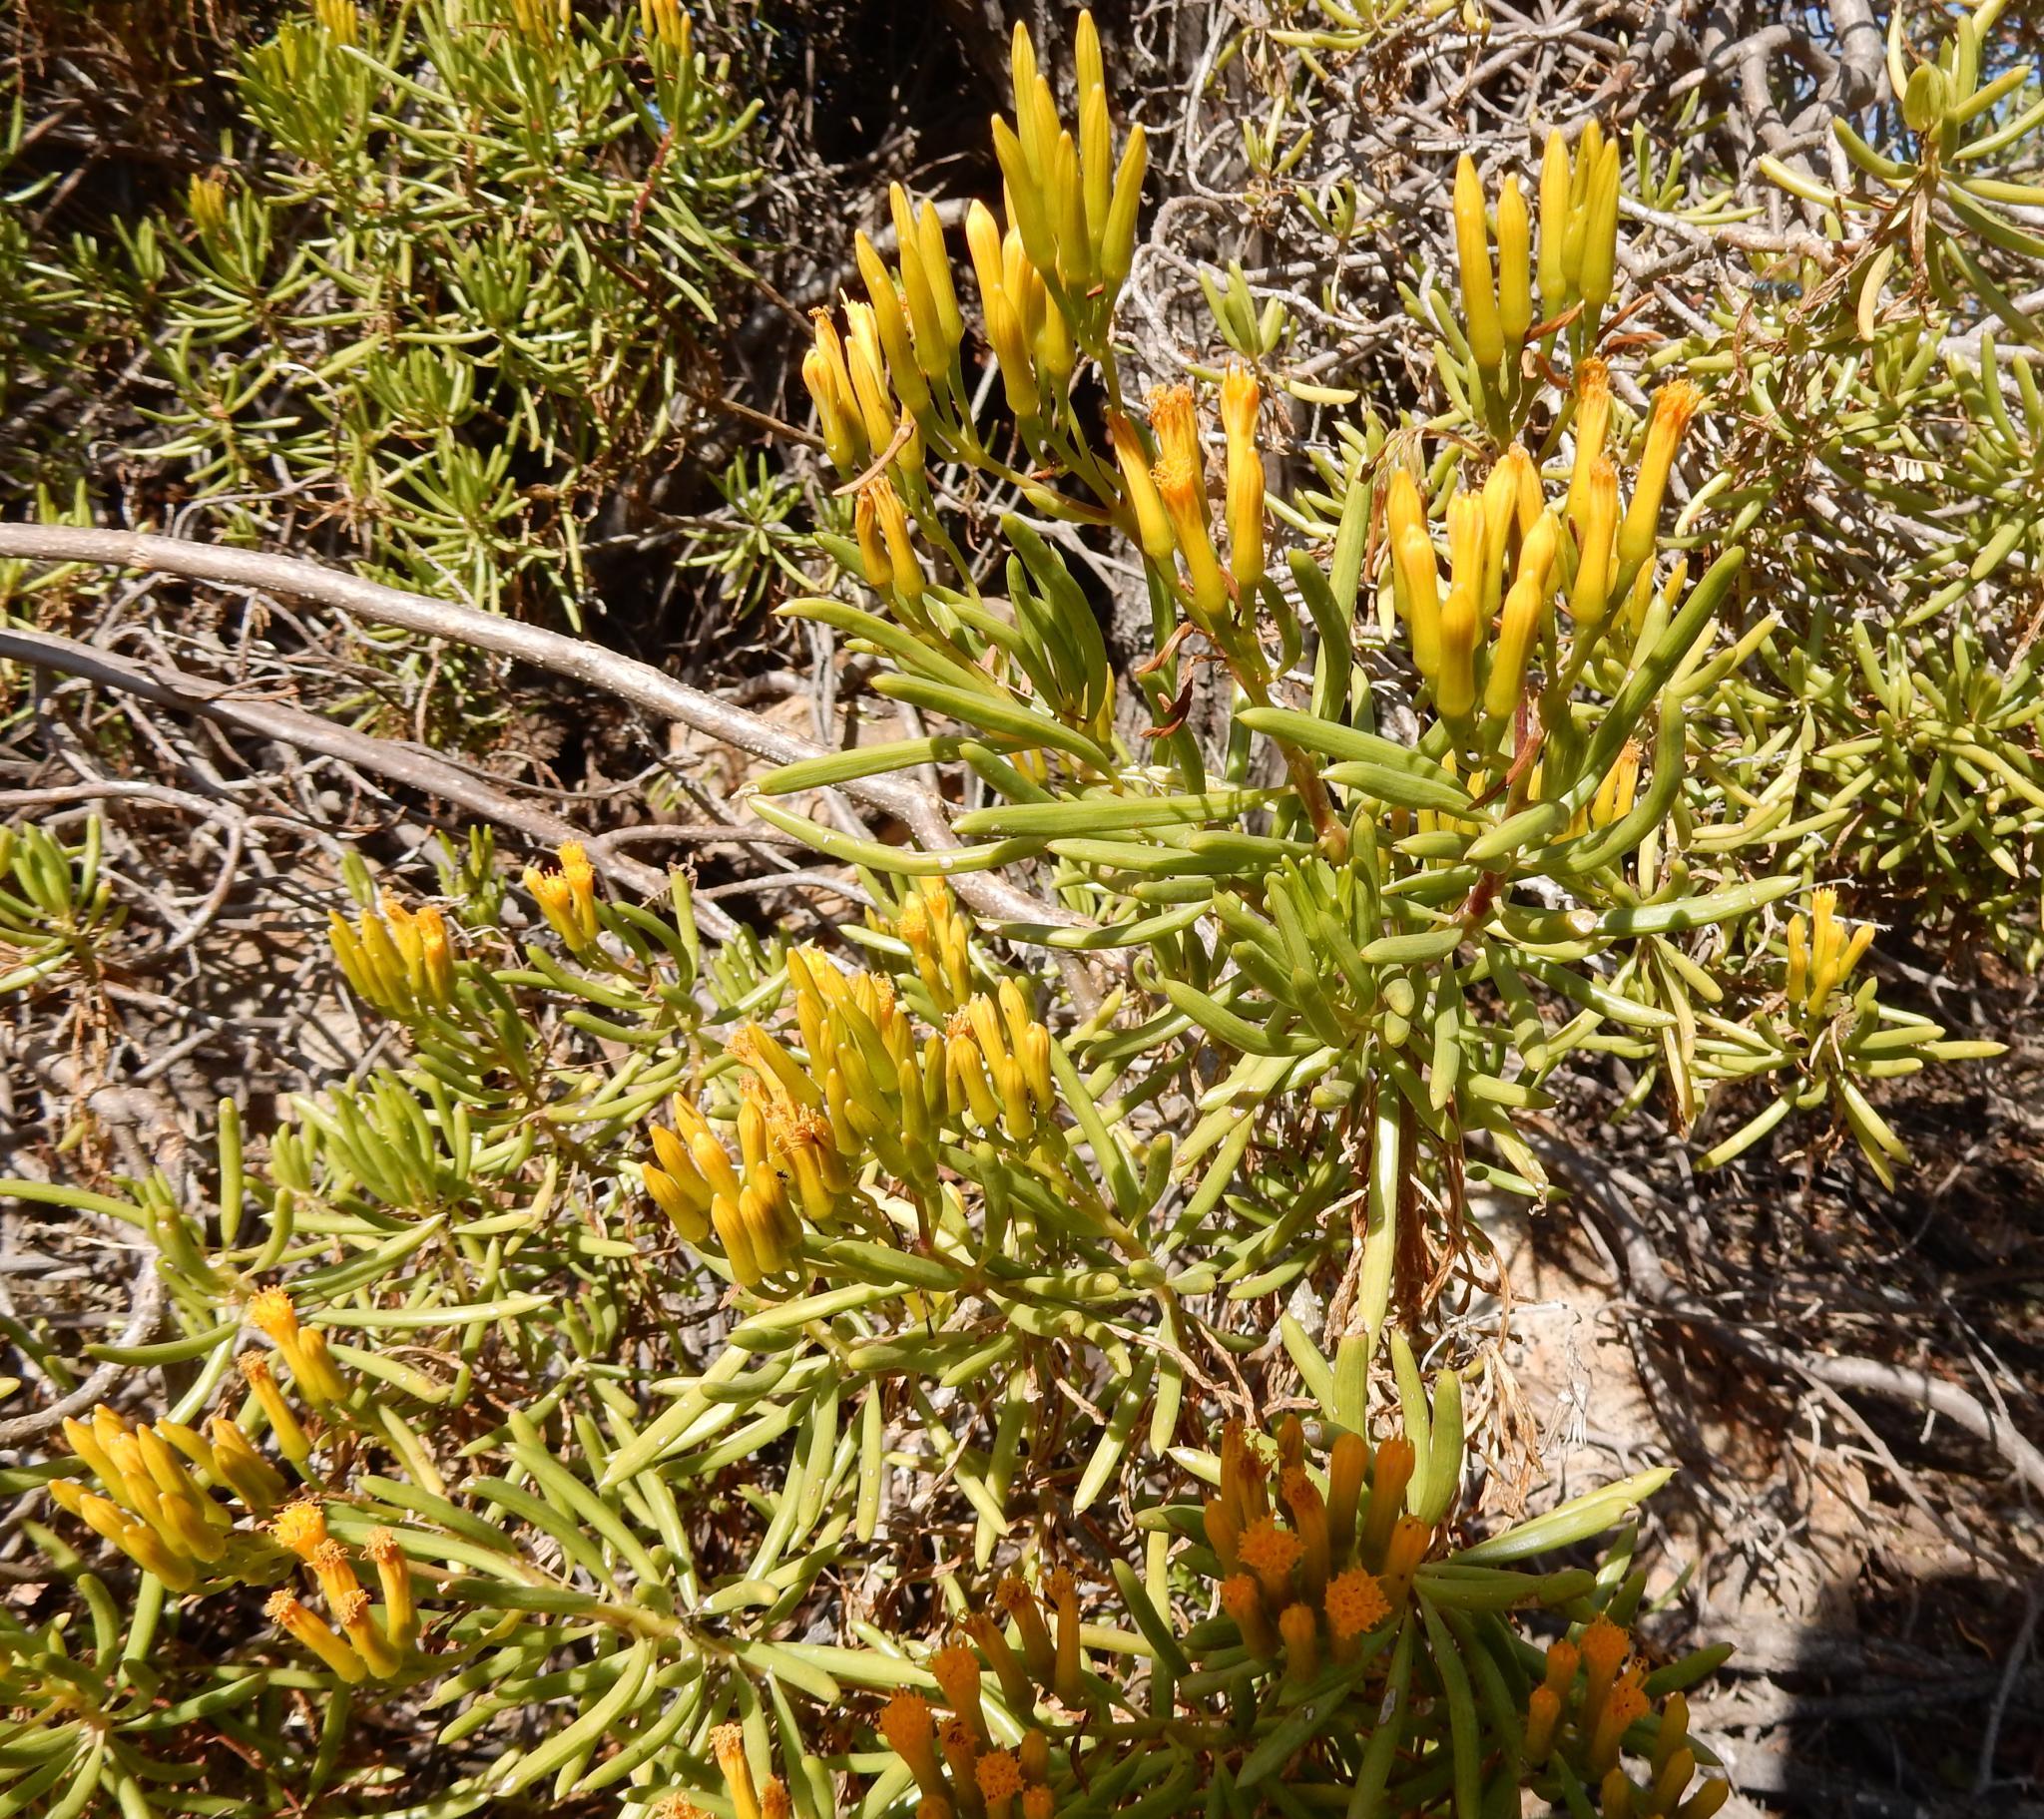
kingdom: Plantae
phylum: Tracheophyta
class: Magnoliopsida
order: Asterales
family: Asteraceae
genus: Kleinia
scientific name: Kleinia barbertonica
